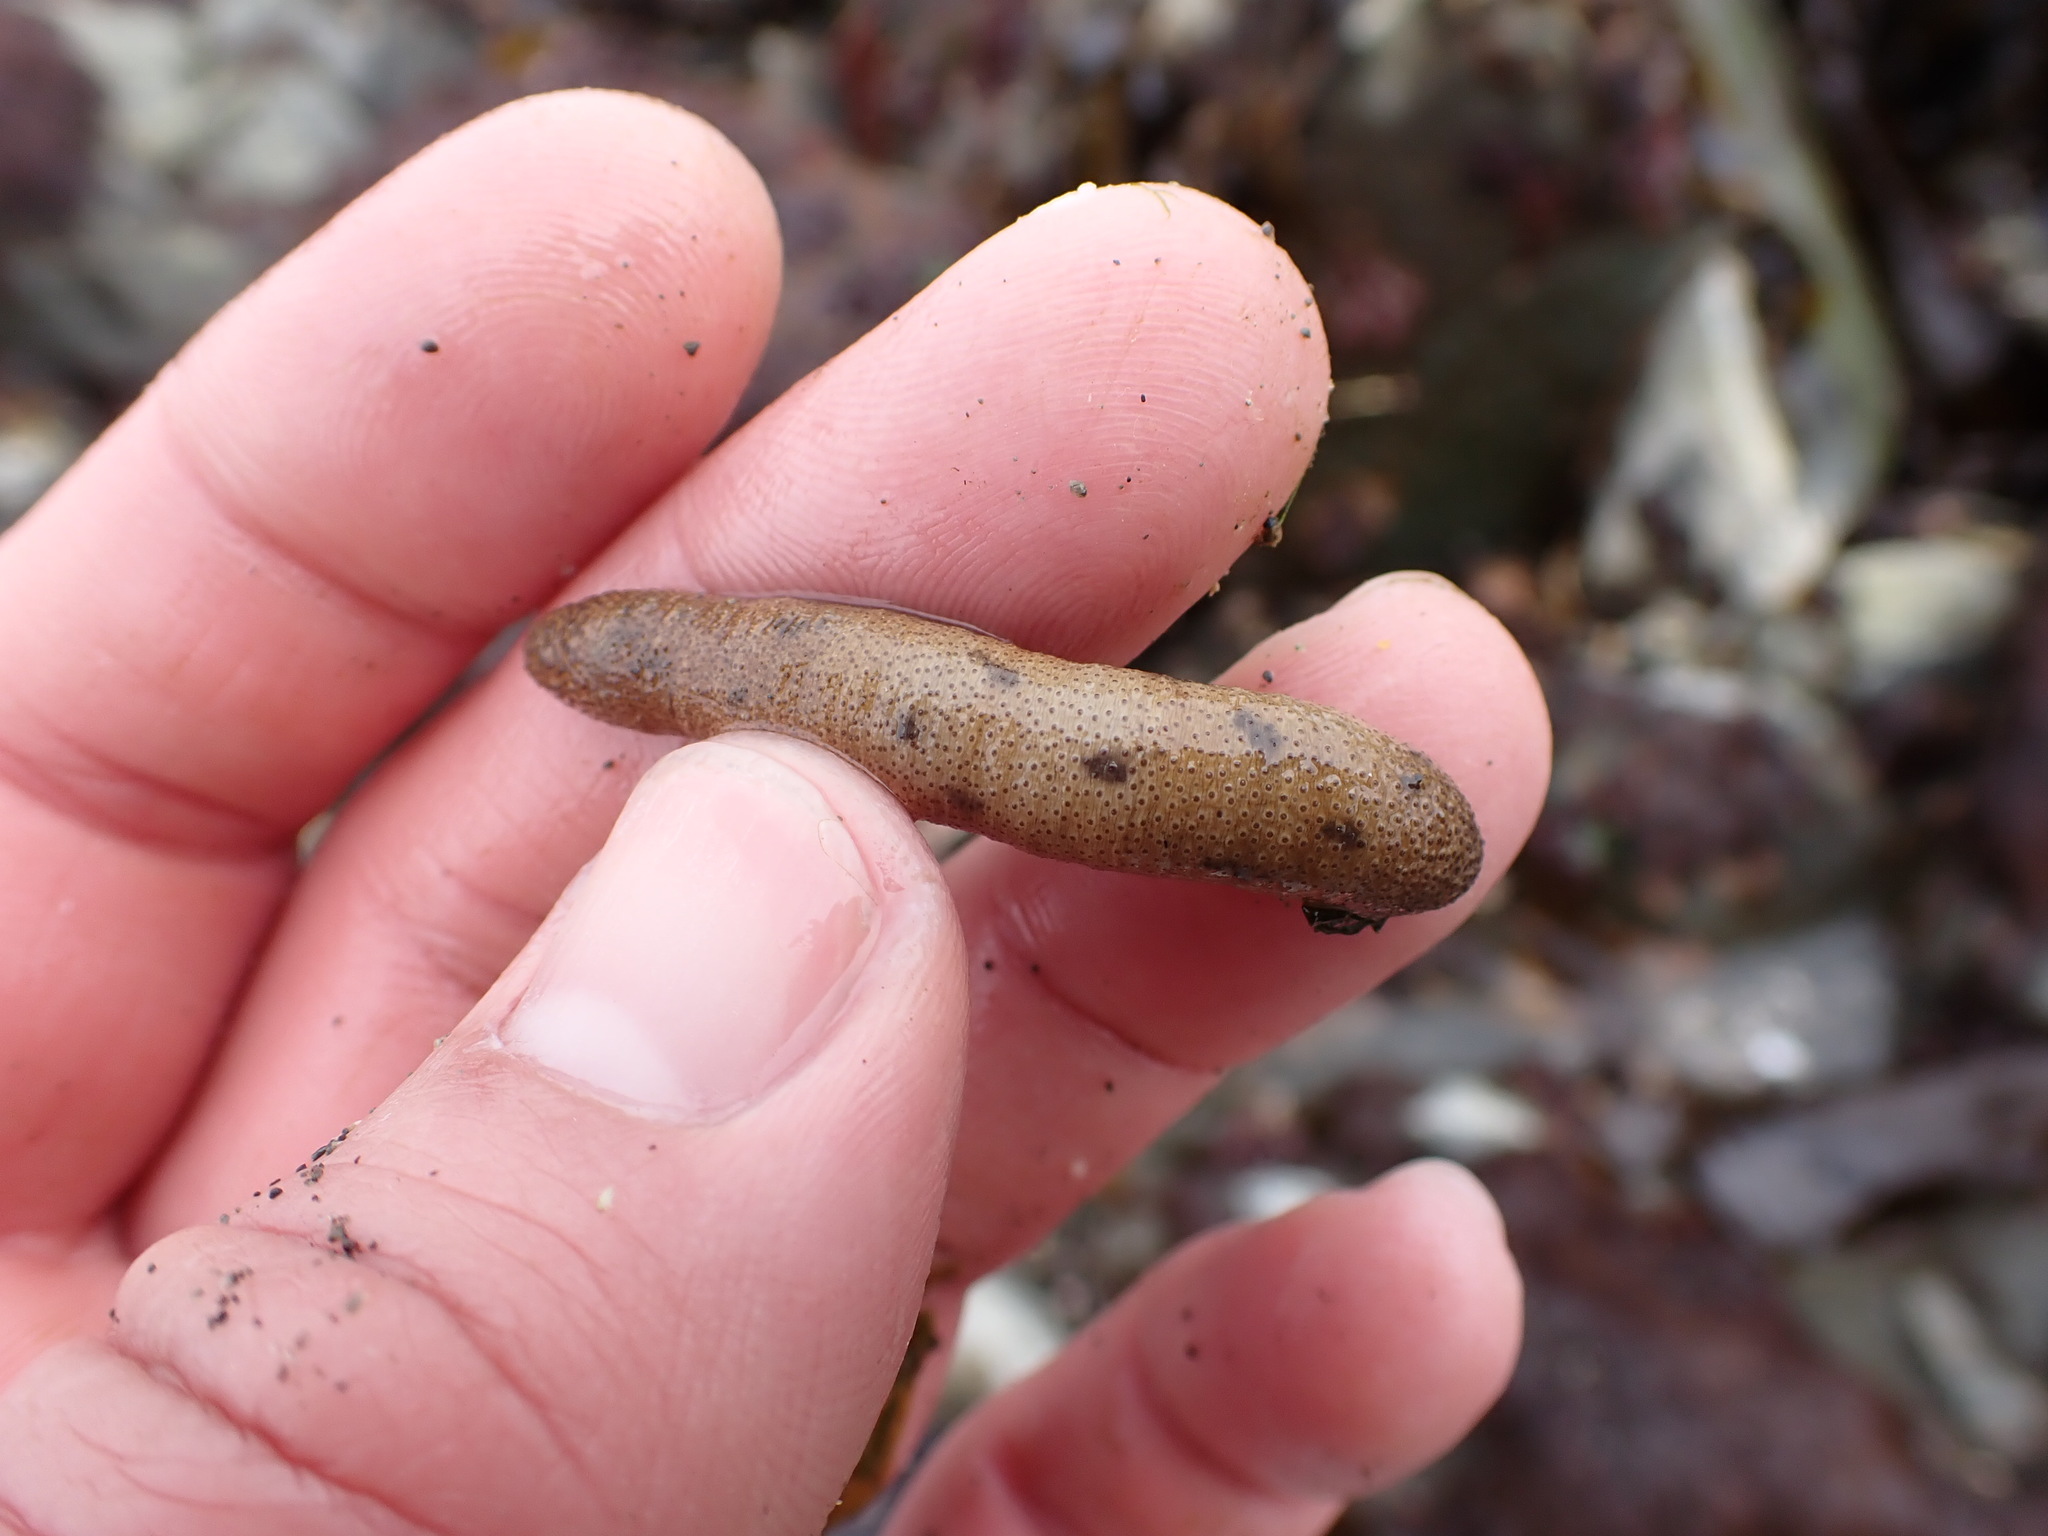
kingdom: Animalia
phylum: Sipuncula
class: Phascolosomatidea
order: Phascolosomatiformes
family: Phascolosomatidae
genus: Phascolosoma
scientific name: Phascolosoma agassizii
